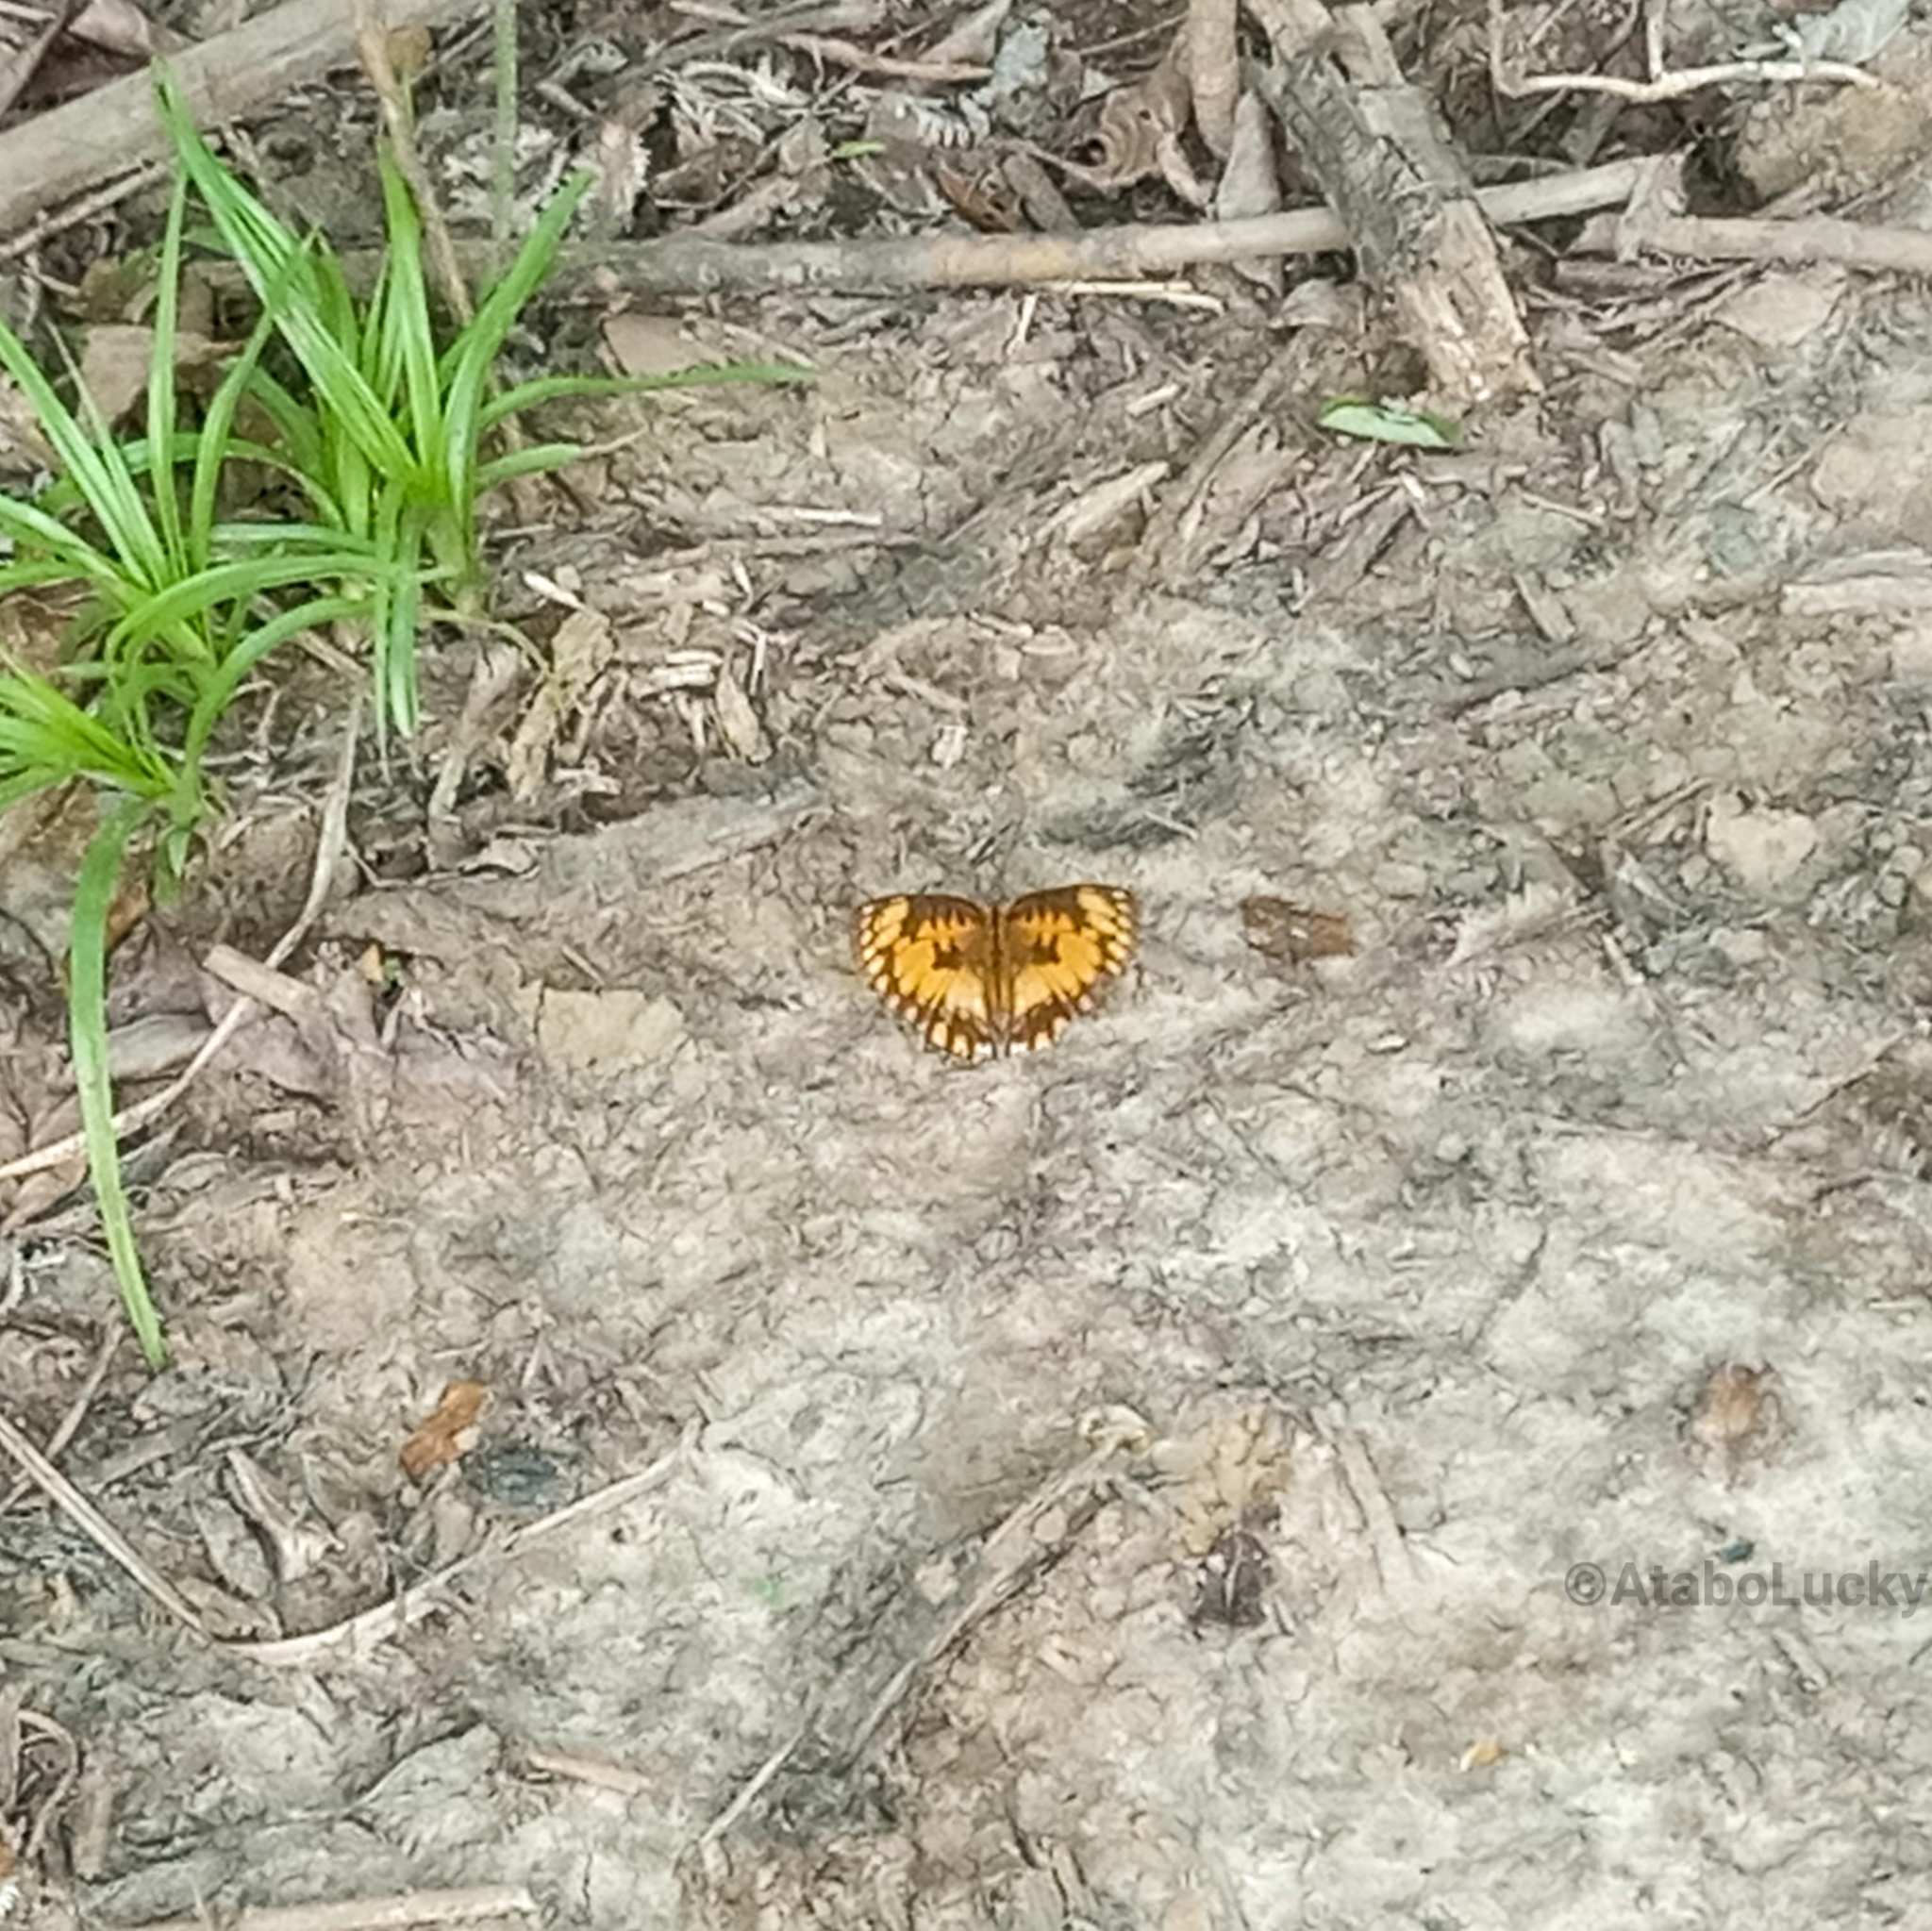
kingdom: Animalia
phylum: Arthropoda
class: Insecta
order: Lepidoptera
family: Nymphalidae
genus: Byblia
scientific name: Byblia anvatara
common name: African joker
